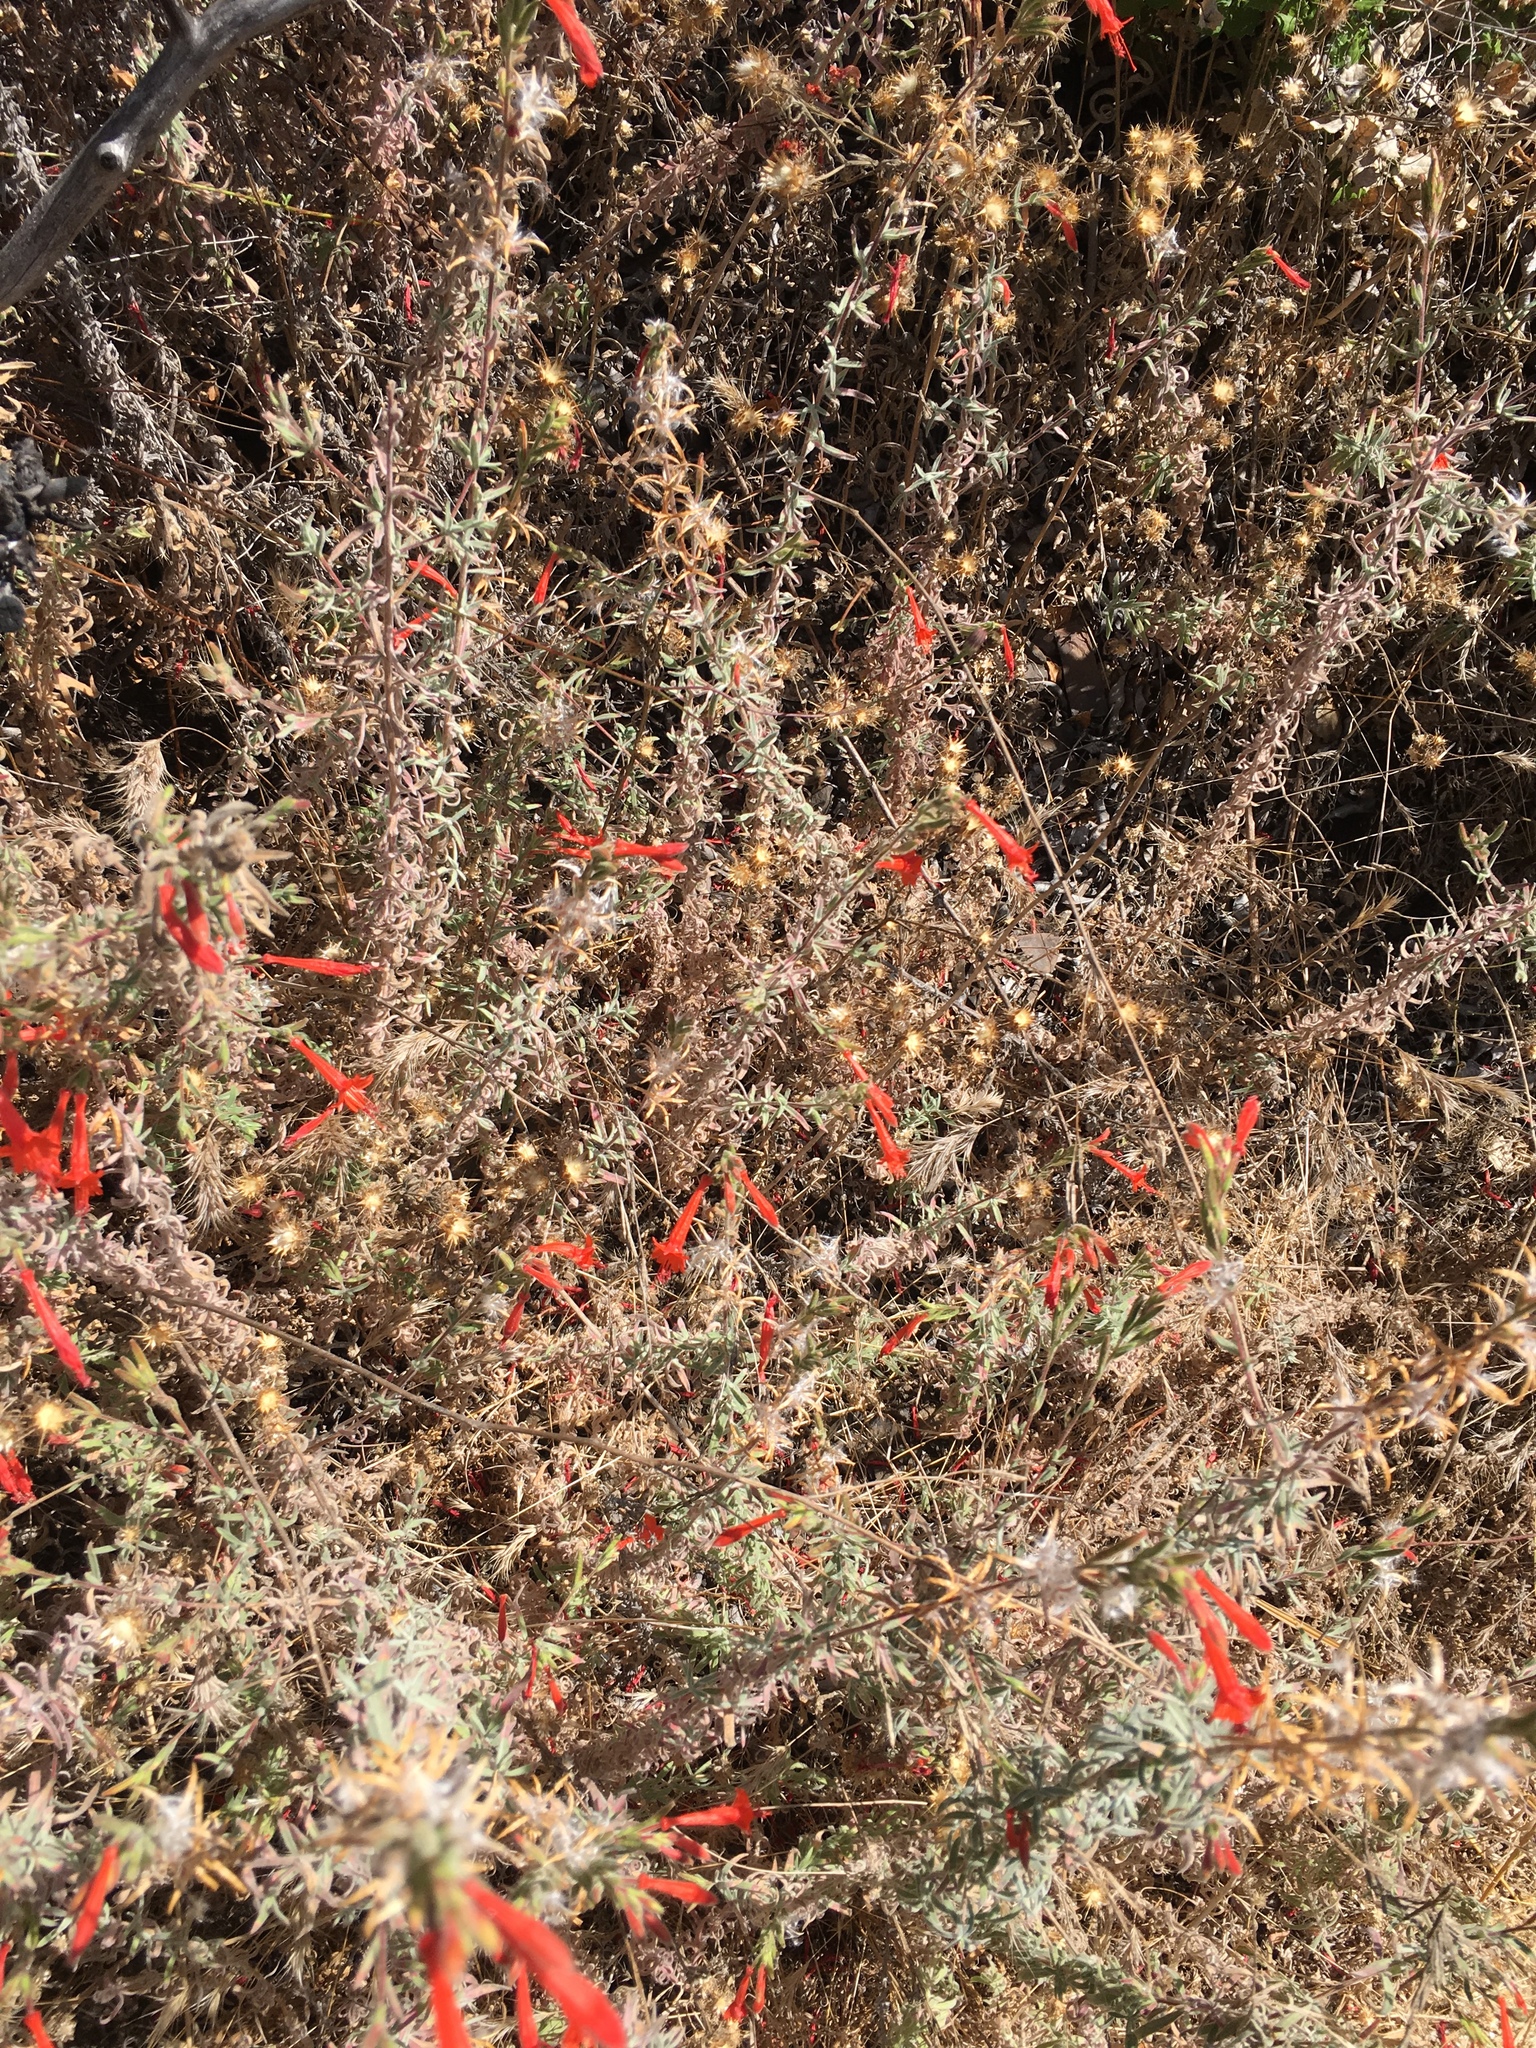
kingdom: Plantae
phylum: Tracheophyta
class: Magnoliopsida
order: Myrtales
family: Onagraceae
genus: Epilobium
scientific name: Epilobium canum
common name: California-fuchsia
